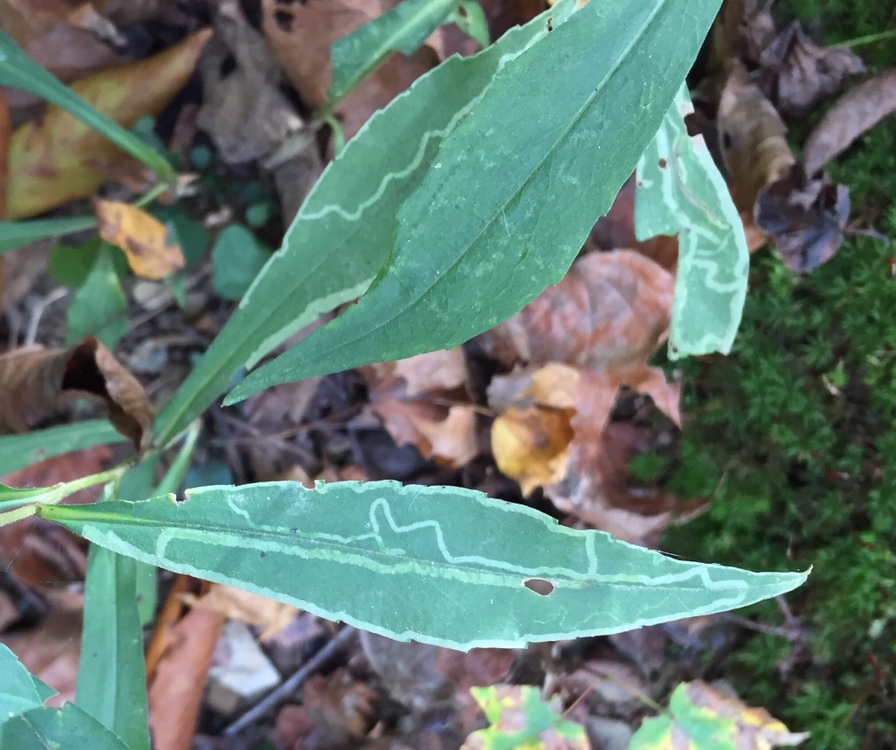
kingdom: Animalia
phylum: Arthropoda
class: Insecta
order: Diptera
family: Agromyzidae
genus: Ophiomyia
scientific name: Ophiomyia parda
